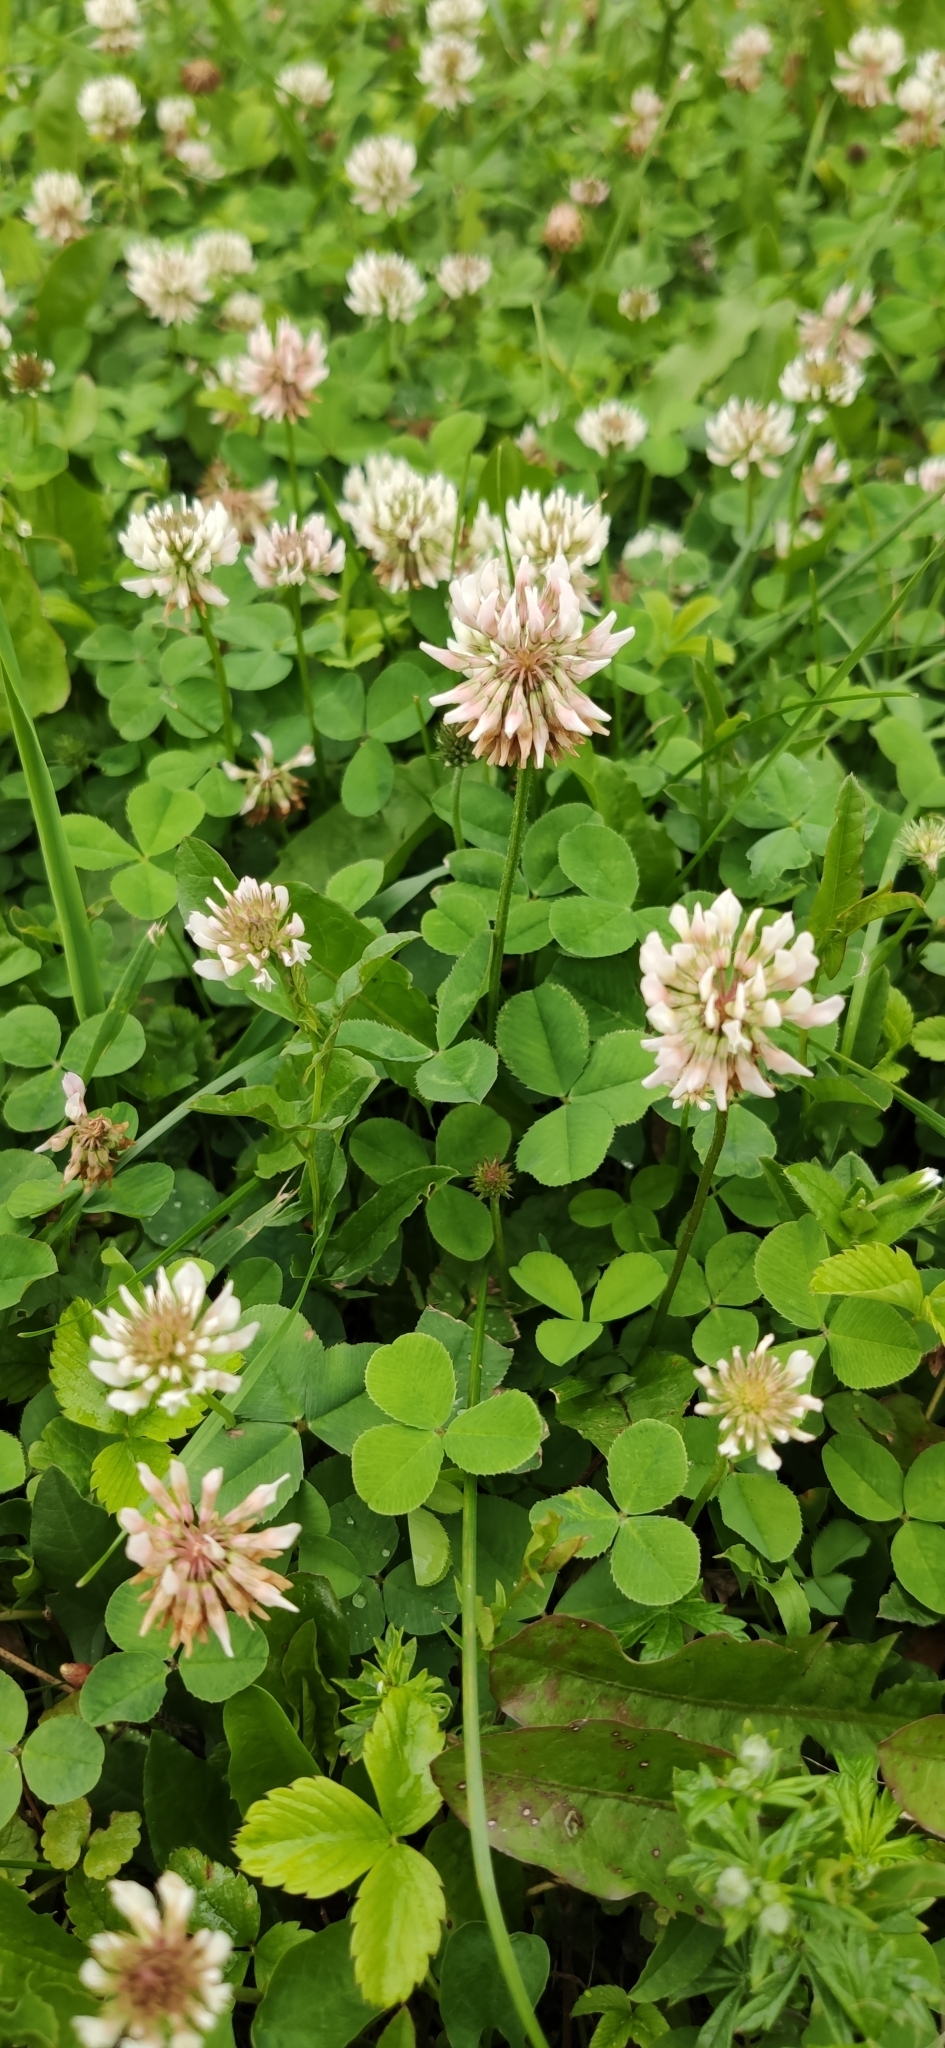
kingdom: Plantae
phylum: Tracheophyta
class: Magnoliopsida
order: Fabales
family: Fabaceae
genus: Trifolium
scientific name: Trifolium repens
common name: White clover
